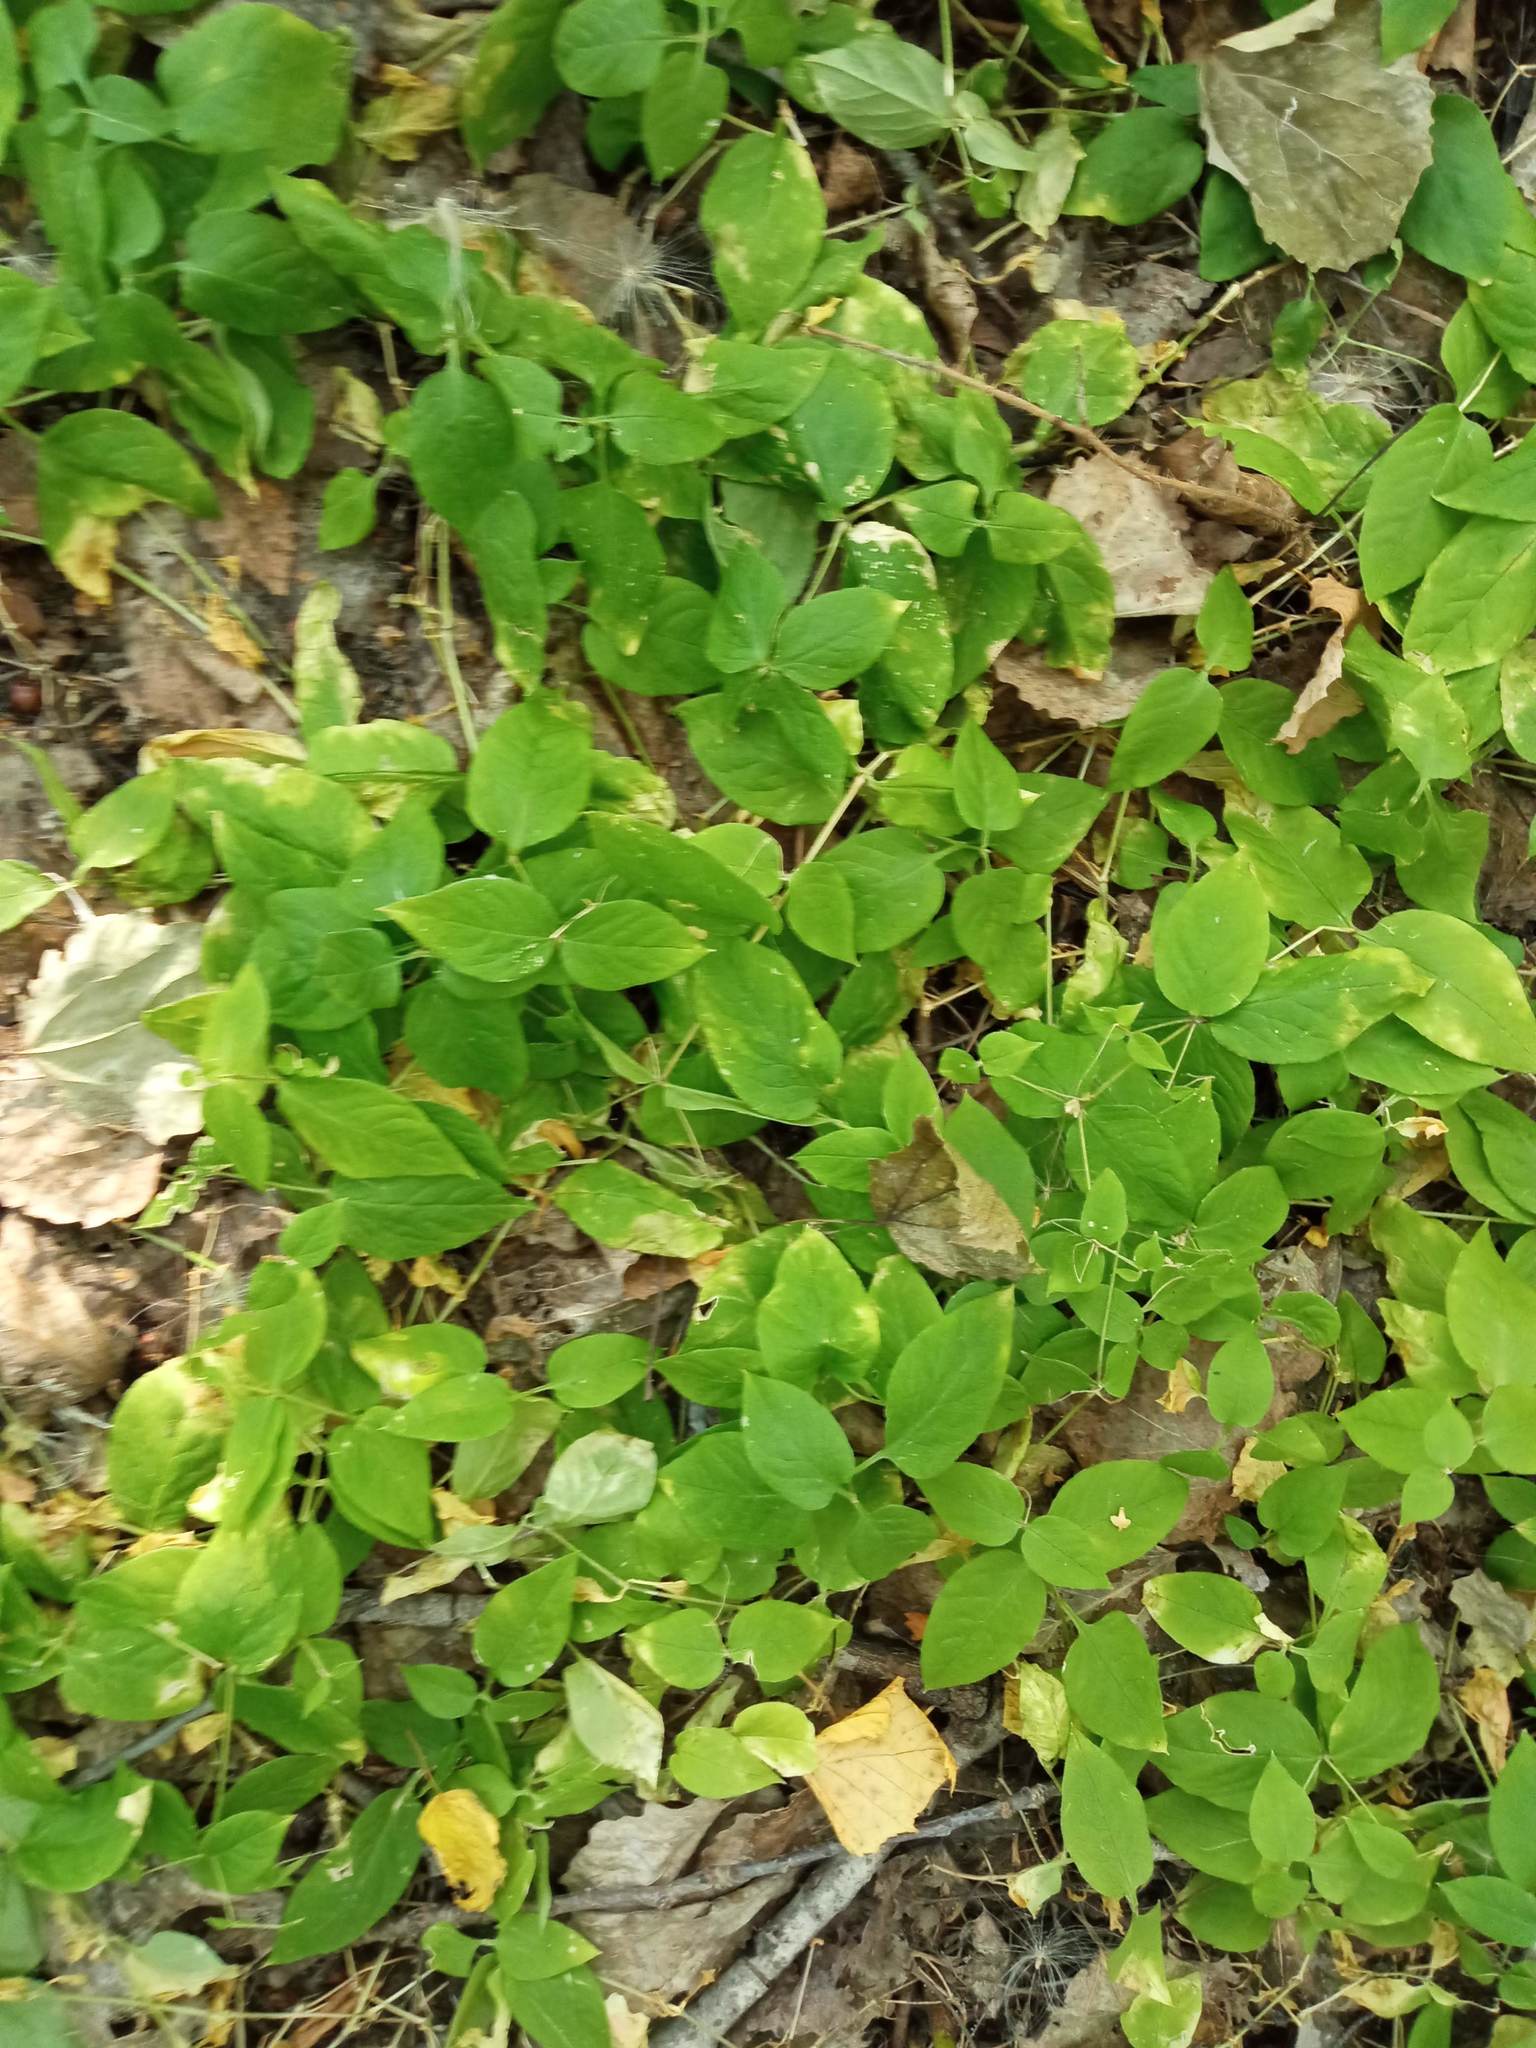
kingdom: Plantae
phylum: Tracheophyta
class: Magnoliopsida
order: Caryophyllales
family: Caryophyllaceae
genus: Stellaria
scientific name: Stellaria bungeana
